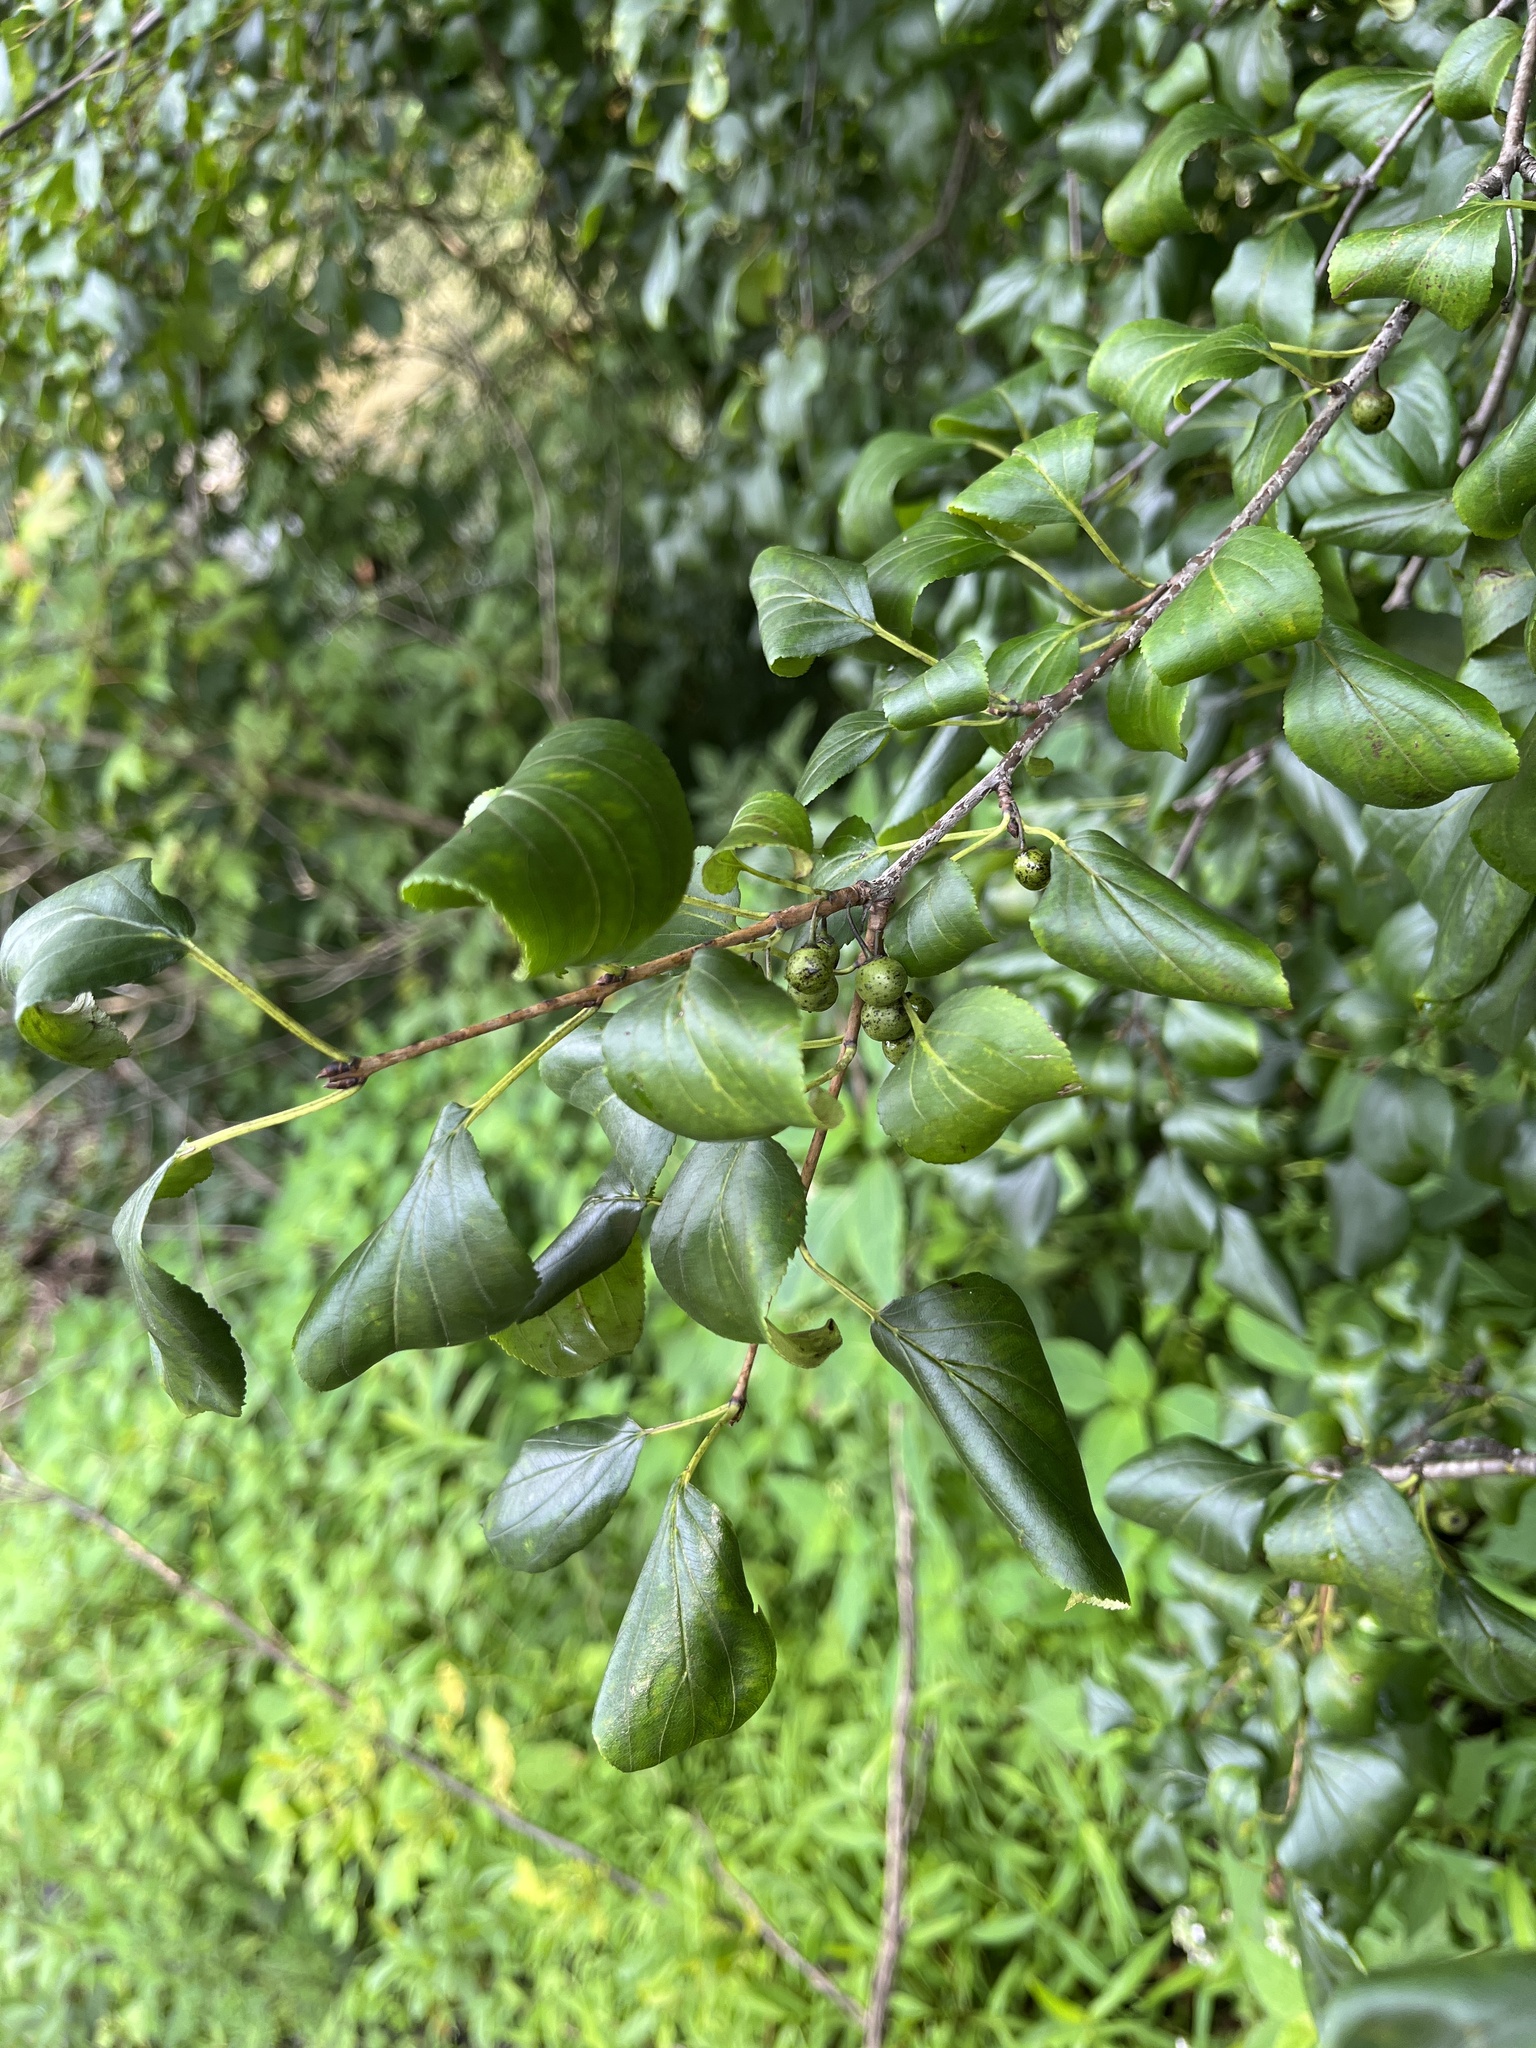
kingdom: Plantae
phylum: Tracheophyta
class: Magnoliopsida
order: Rosales
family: Rhamnaceae
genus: Rhamnus
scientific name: Rhamnus cathartica
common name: Common buckthorn
